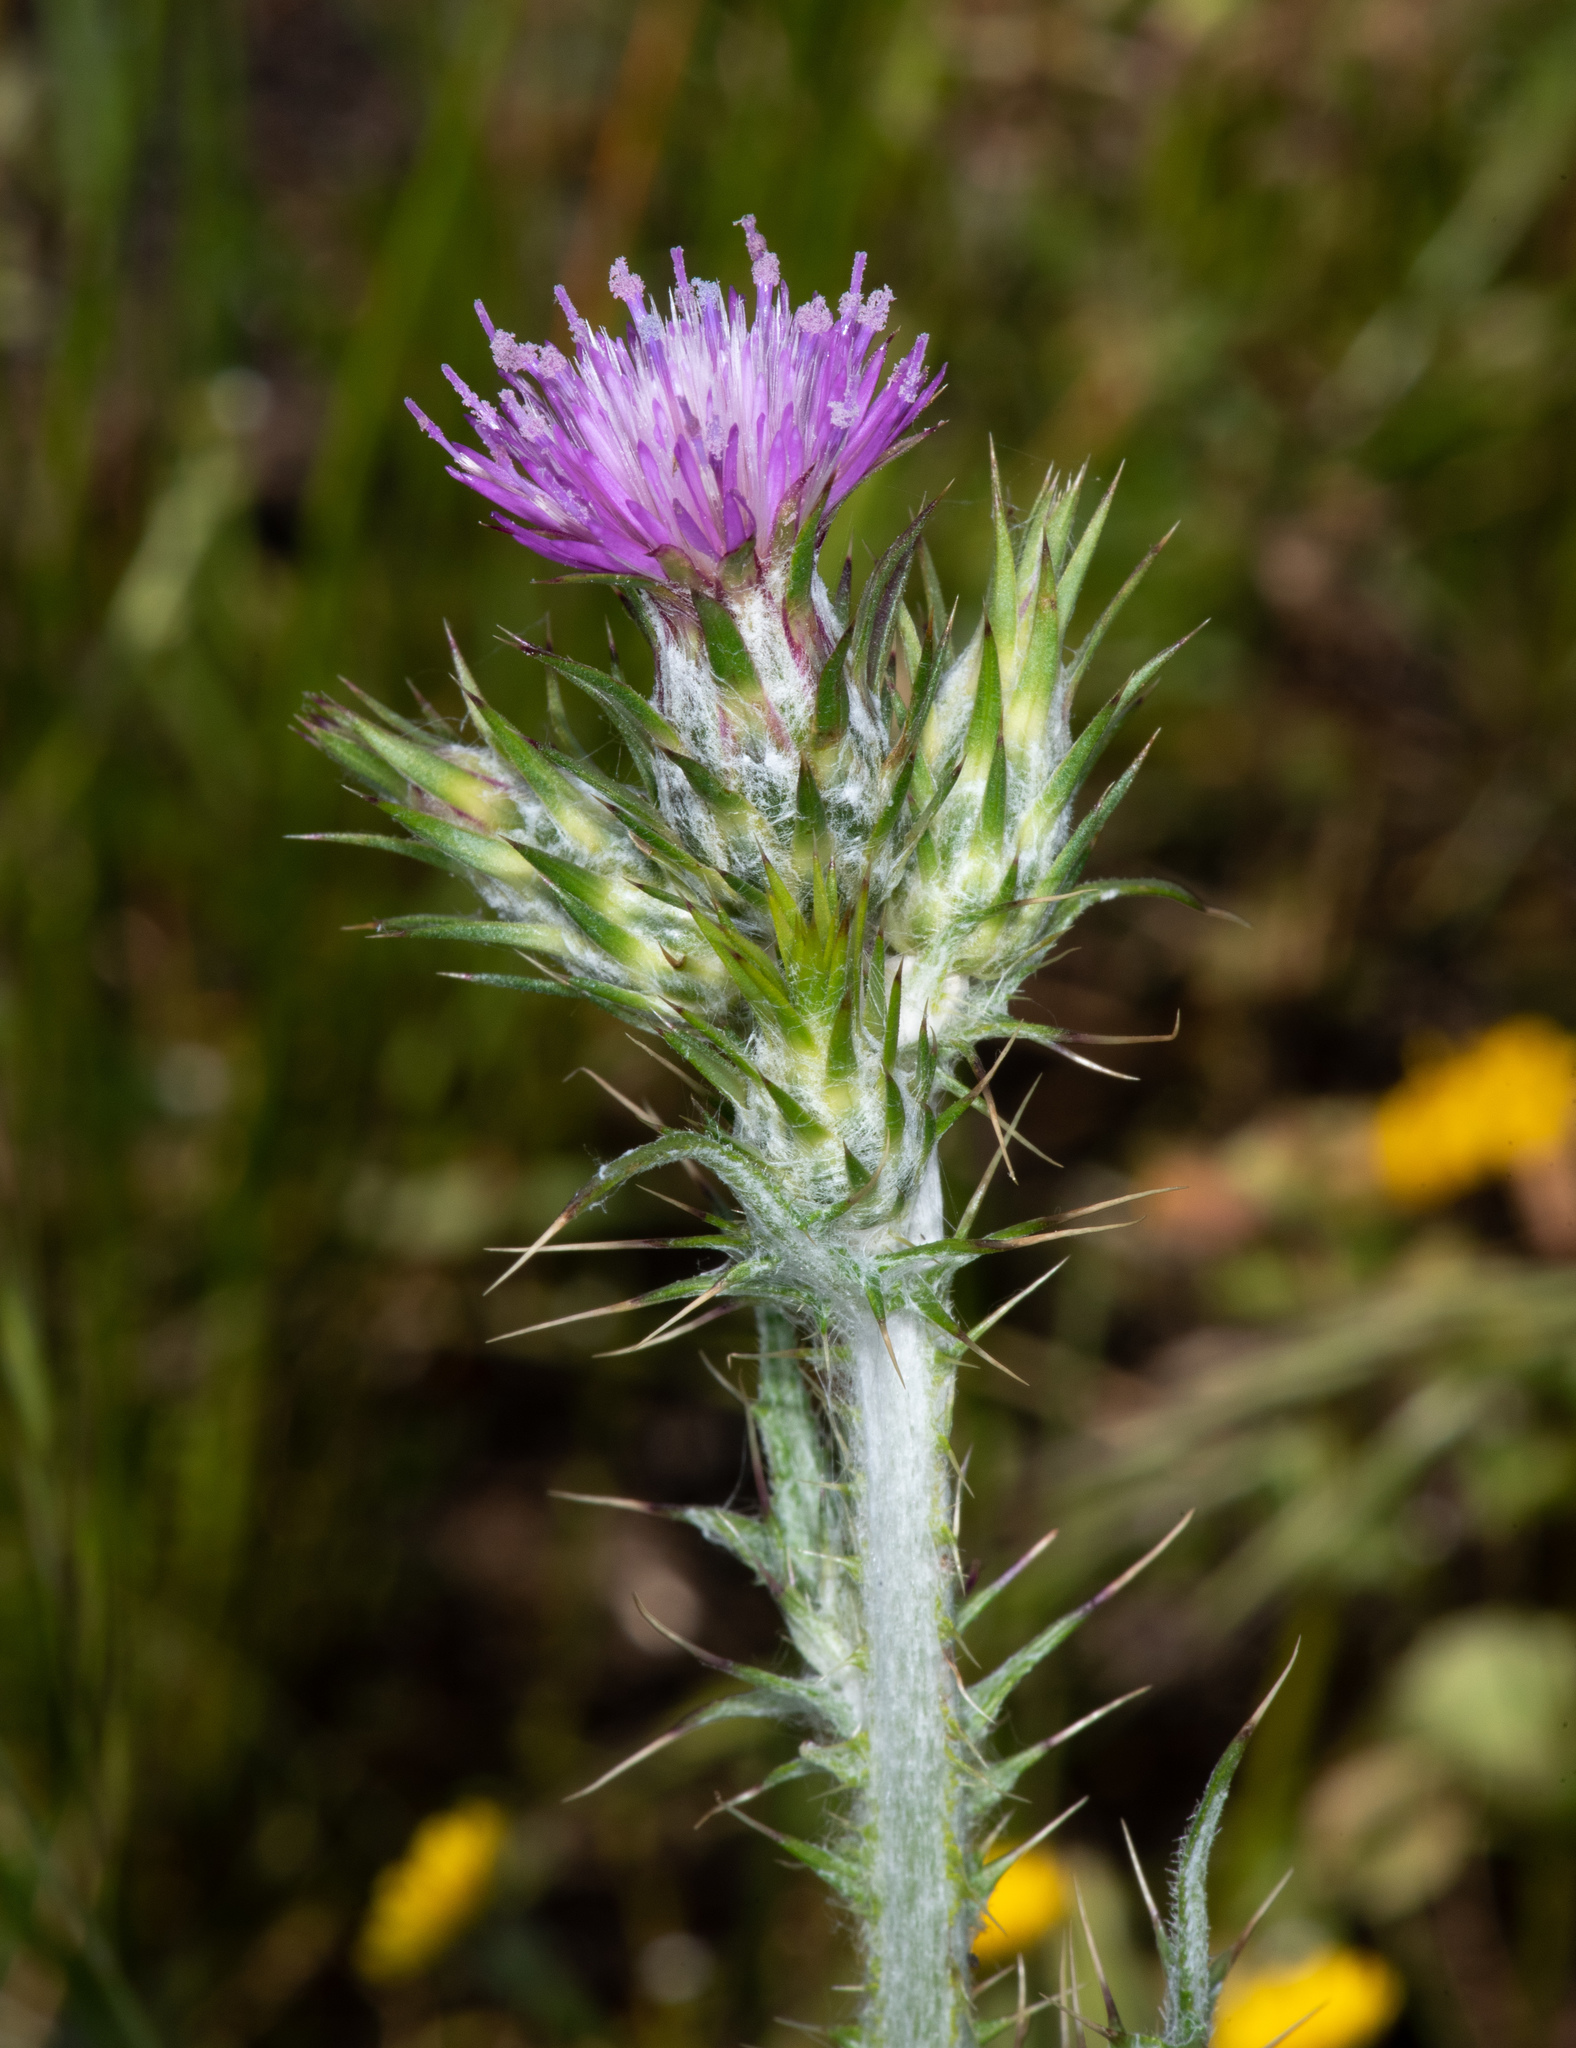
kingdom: Plantae
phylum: Tracheophyta
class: Magnoliopsida
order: Asterales
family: Asteraceae
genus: Carduus
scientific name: Carduus pycnocephalus
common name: Plymouth thistle
